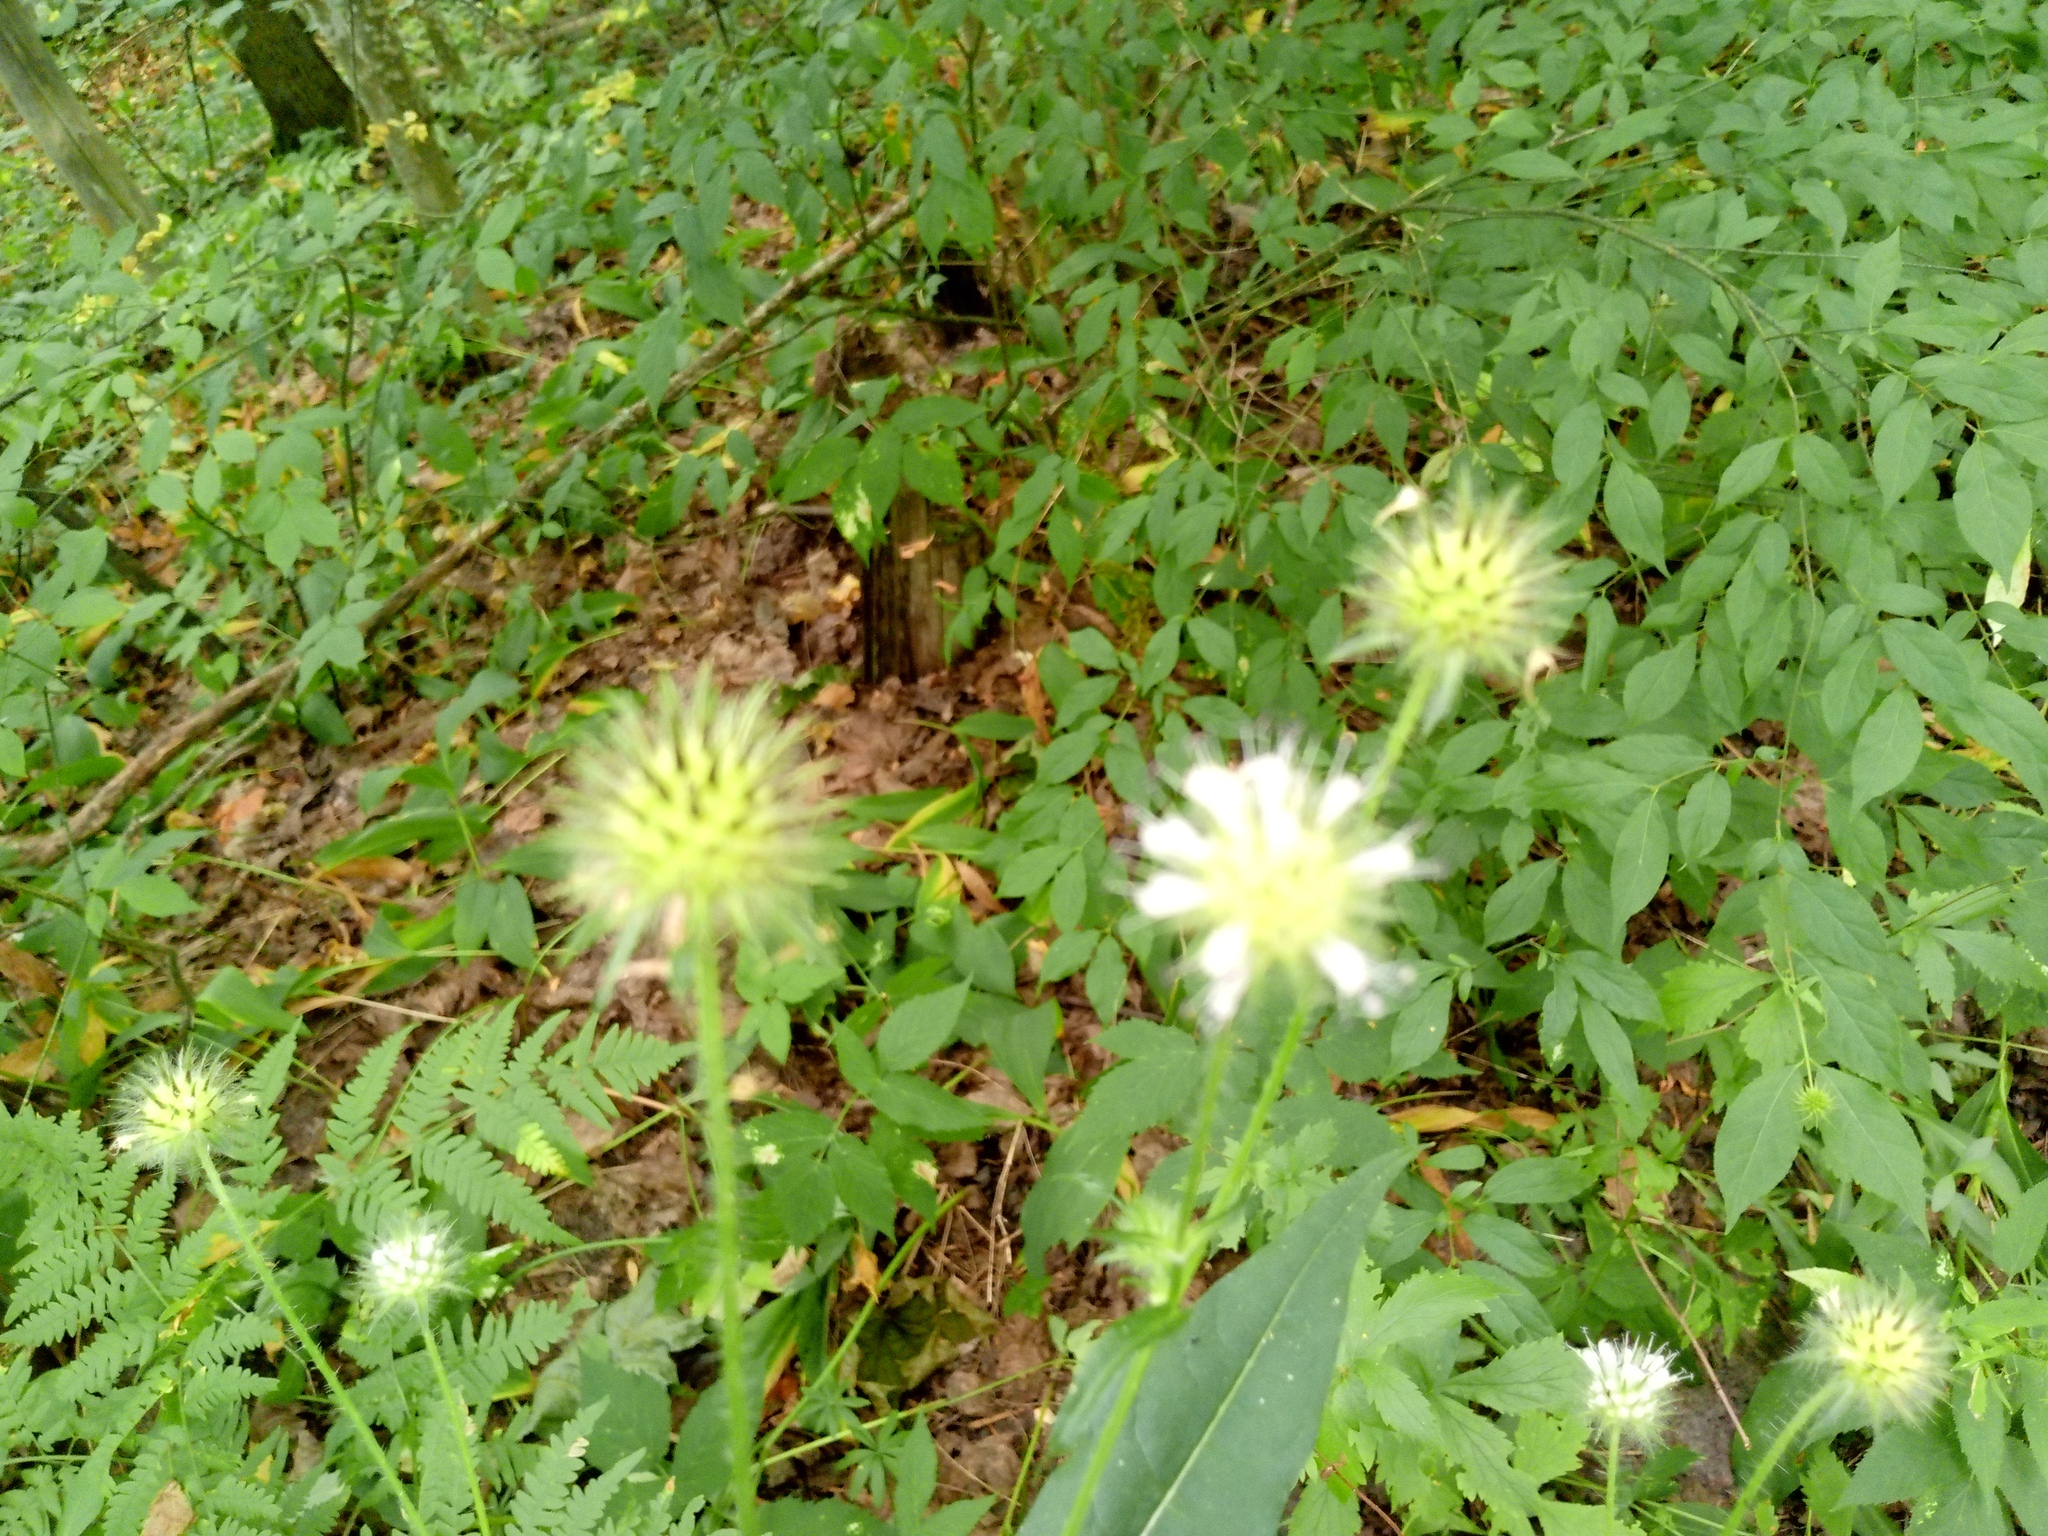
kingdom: Plantae
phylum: Tracheophyta
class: Magnoliopsida
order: Dipsacales
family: Caprifoliaceae
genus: Dipsacus
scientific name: Dipsacus pilosus
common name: Small teasel
